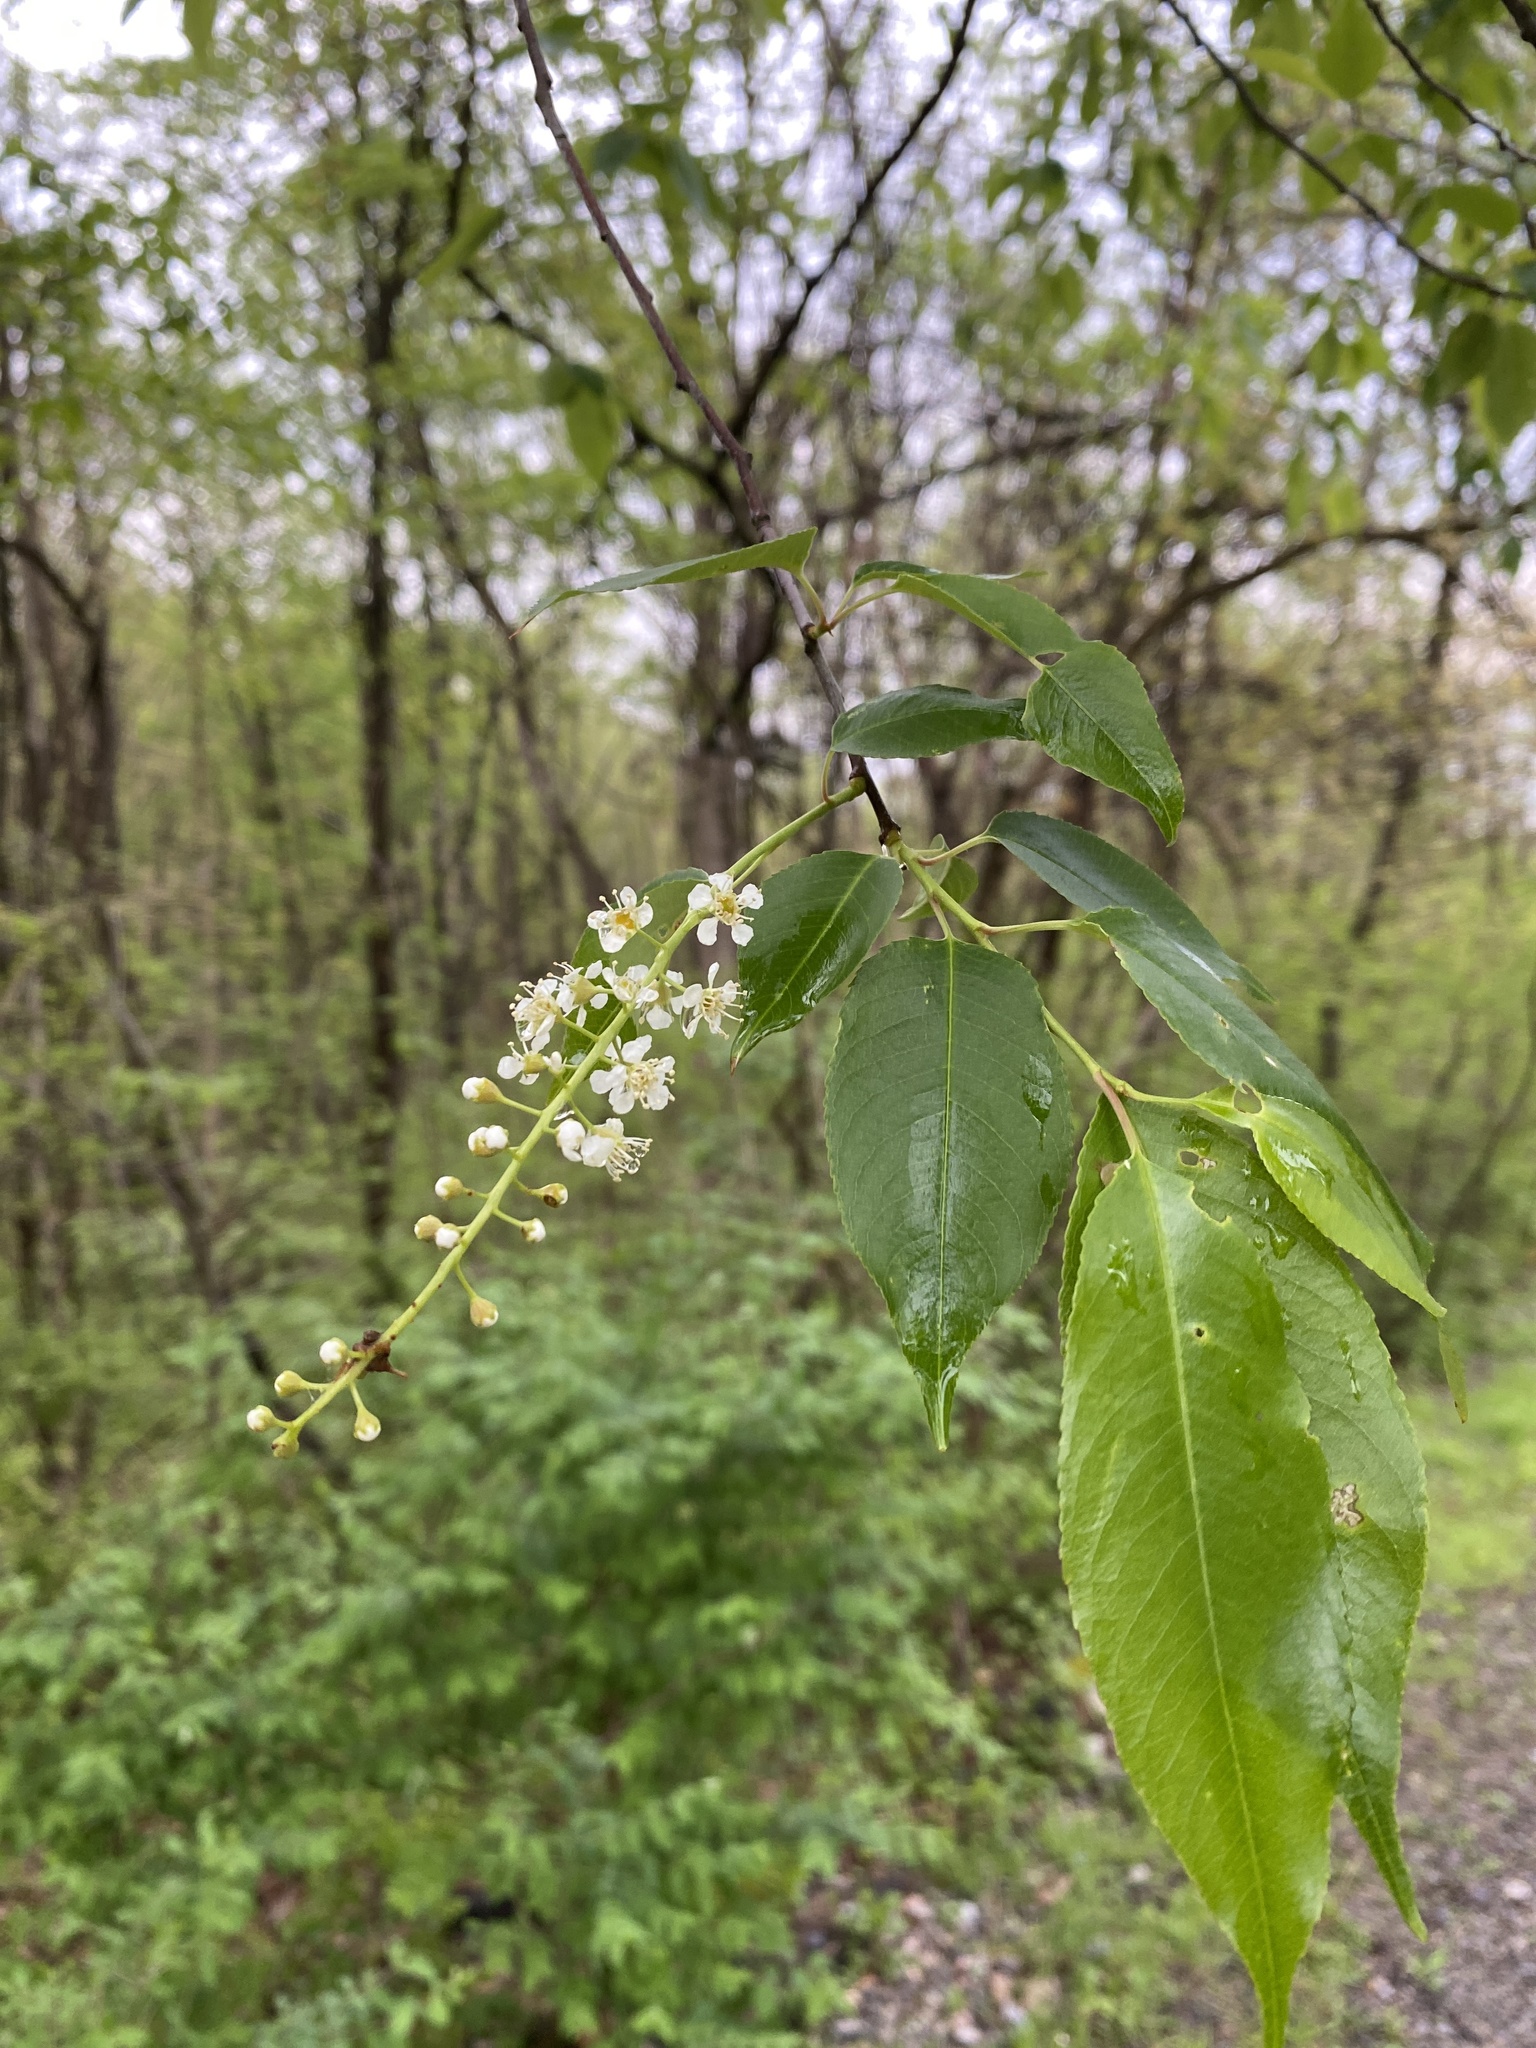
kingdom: Plantae
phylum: Tracheophyta
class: Magnoliopsida
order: Rosales
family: Rosaceae
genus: Prunus
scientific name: Prunus serotina
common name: Black cherry
